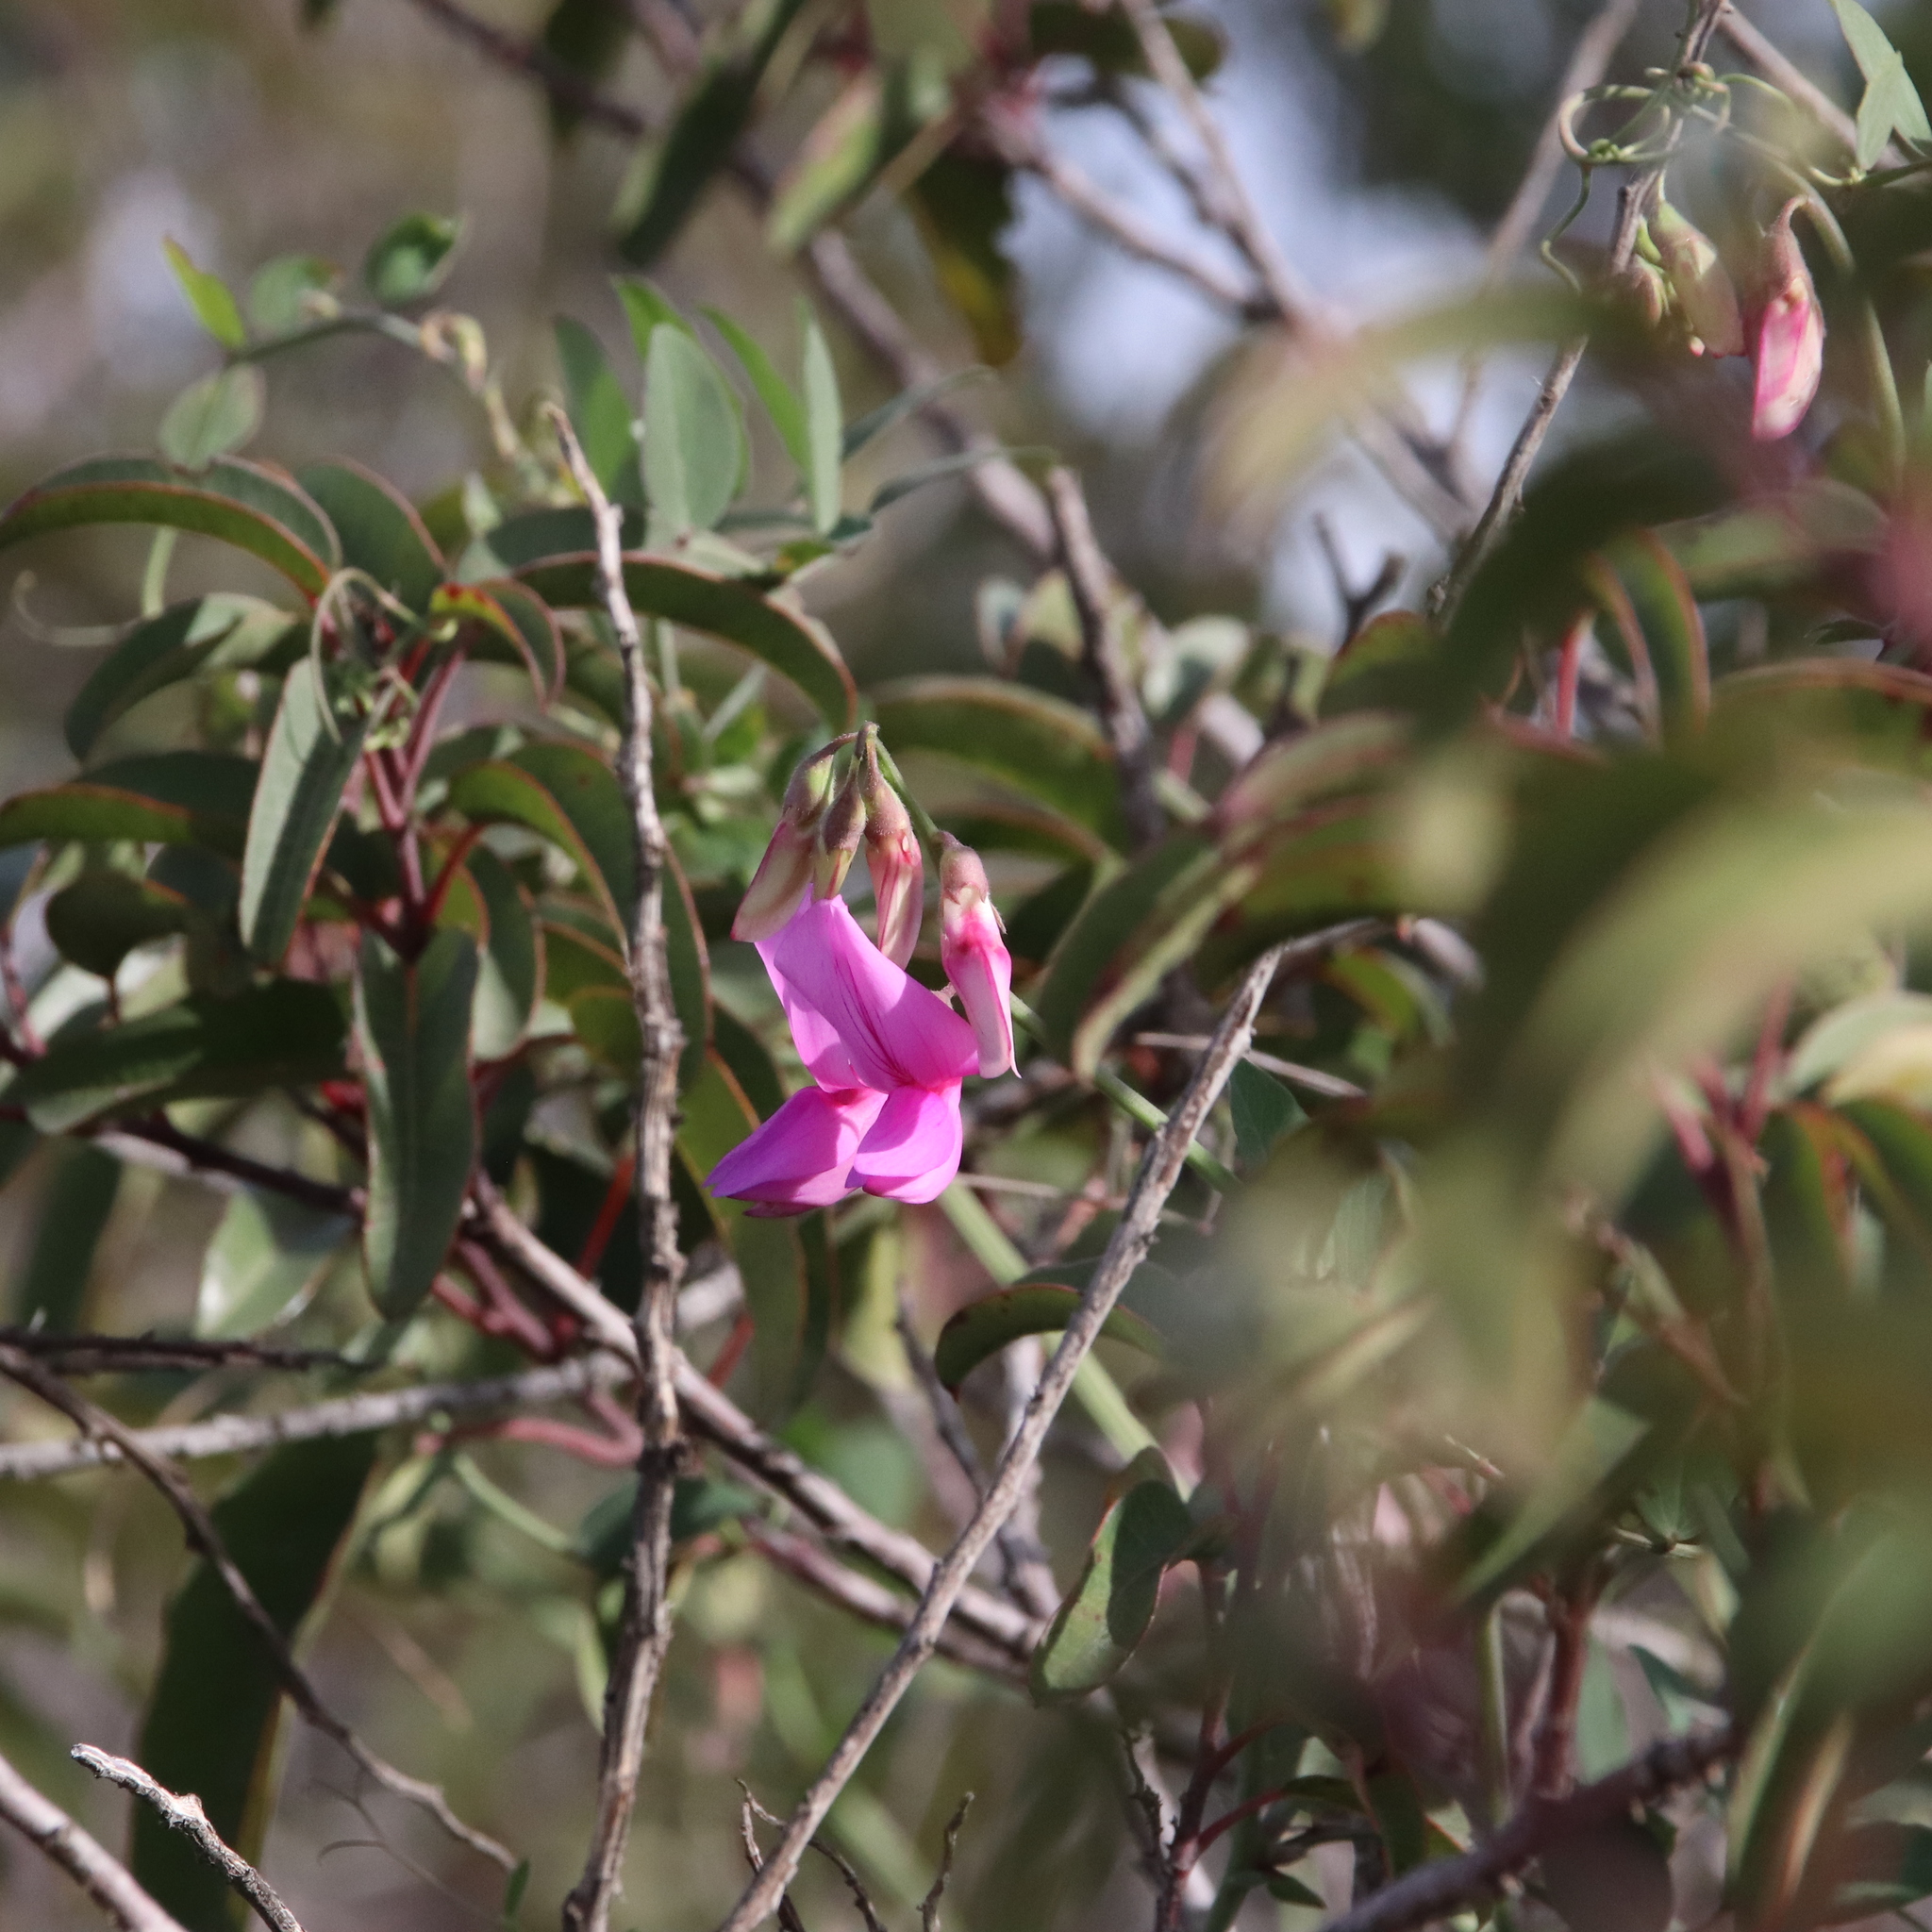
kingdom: Plantae
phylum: Tracheophyta
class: Magnoliopsida
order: Fabales
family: Fabaceae
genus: Lathyrus
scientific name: Lathyrus vestitus
